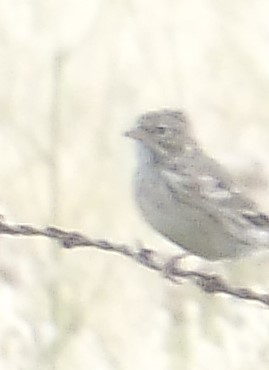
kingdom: Animalia
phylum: Chordata
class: Aves
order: Passeriformes
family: Passerellidae
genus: Pooecetes
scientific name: Pooecetes gramineus
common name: Vesper sparrow
